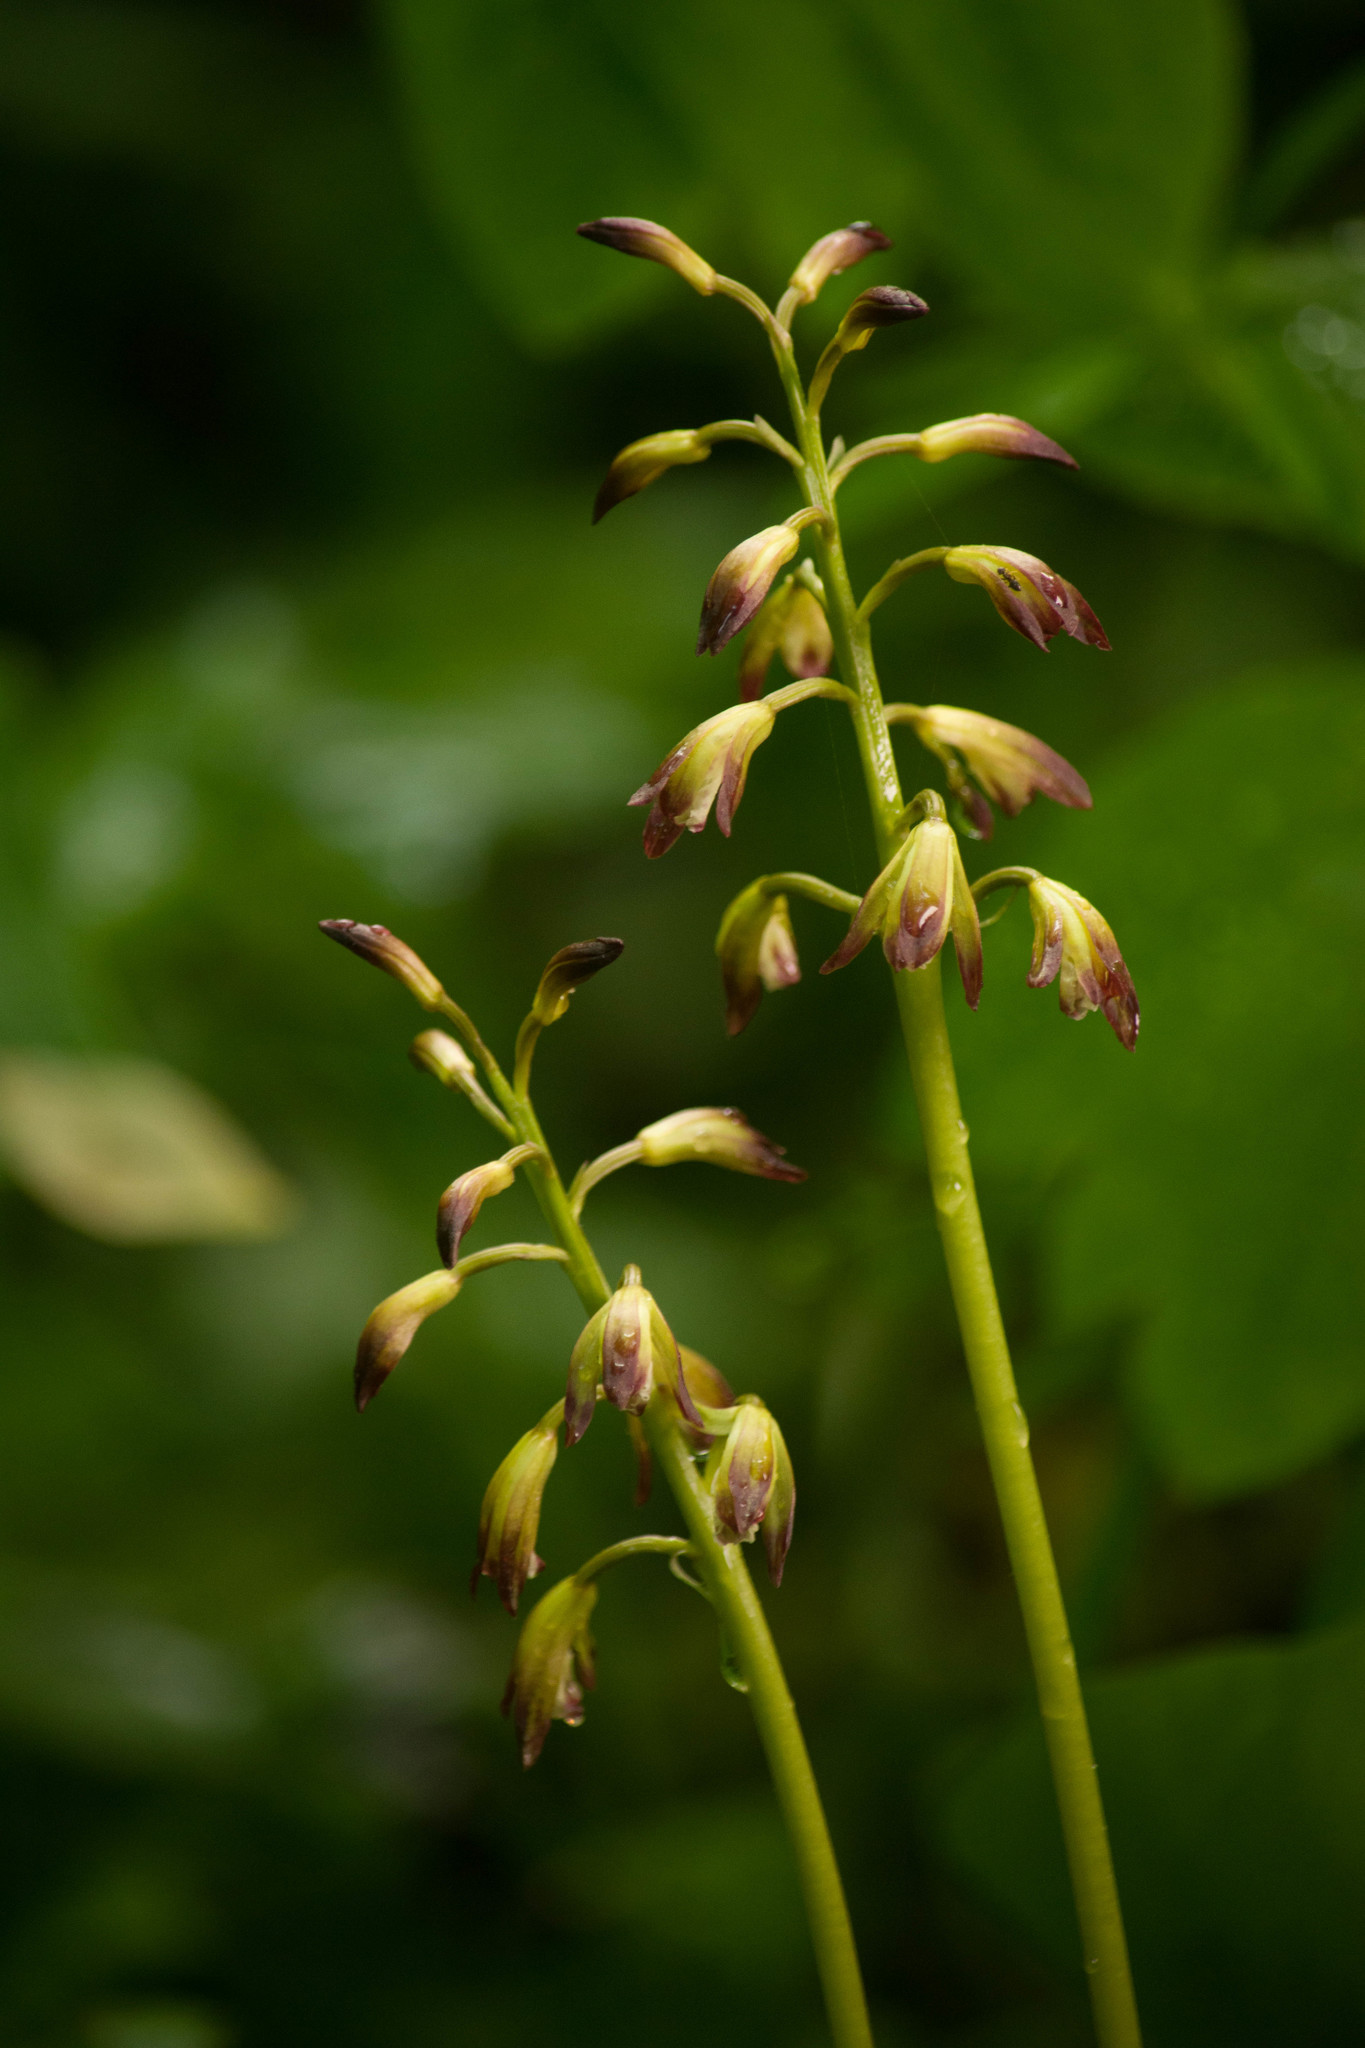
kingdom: Plantae
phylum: Tracheophyta
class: Liliopsida
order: Asparagales
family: Orchidaceae
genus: Aplectrum
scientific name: Aplectrum hyemale
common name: Adam-and-eve
